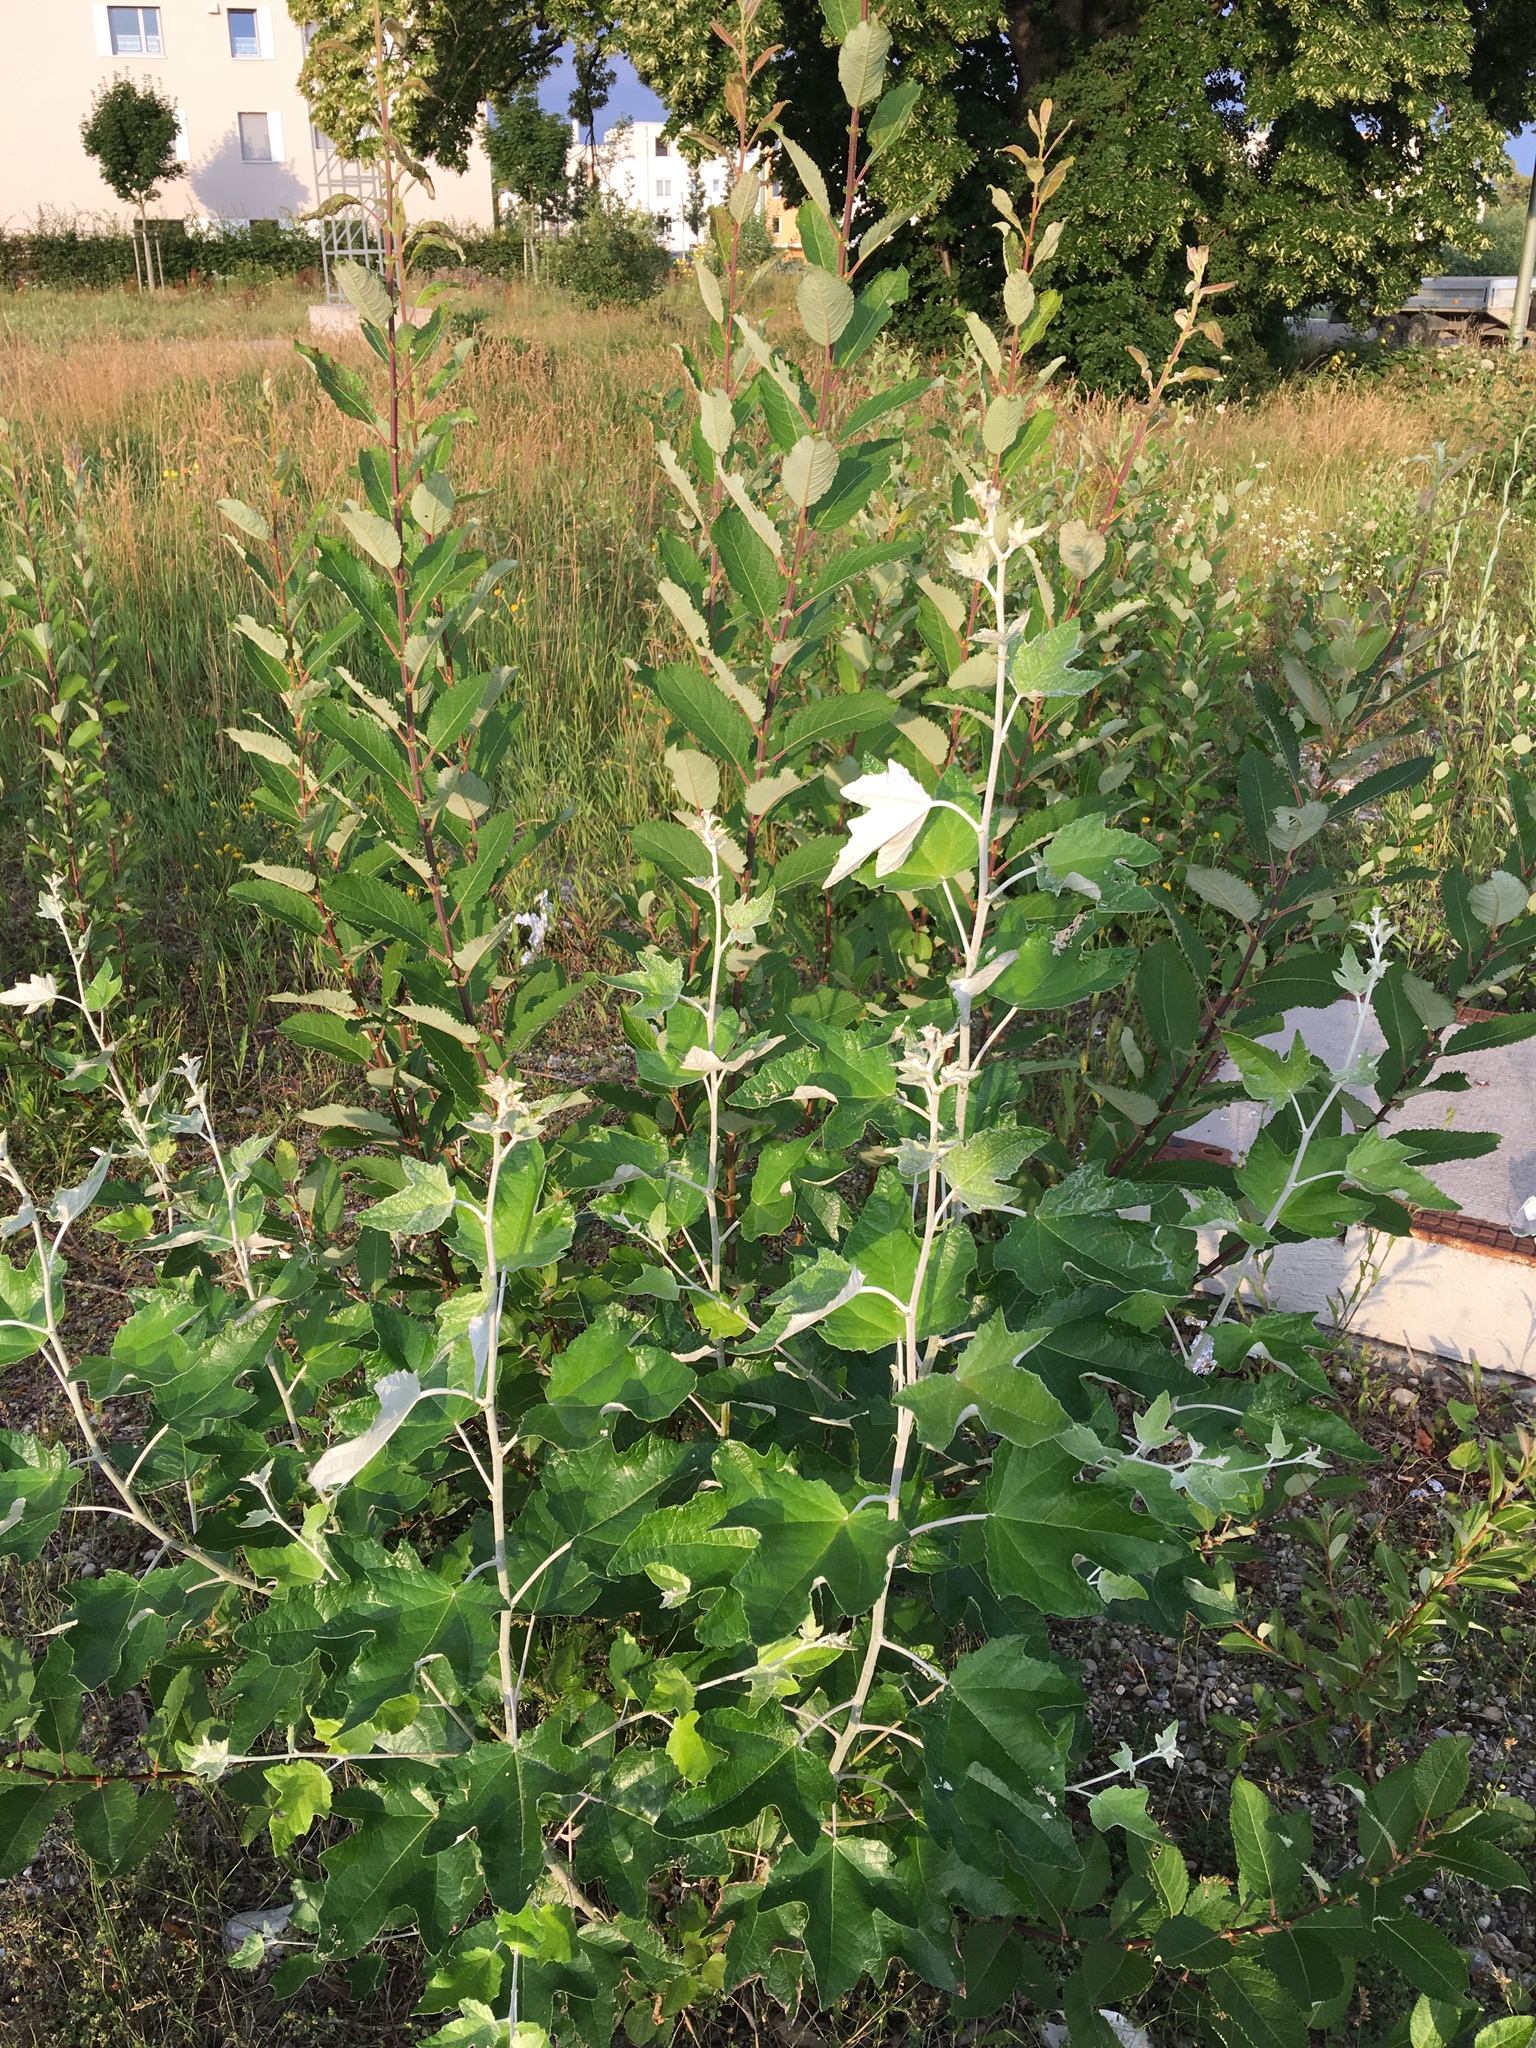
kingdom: Plantae
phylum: Tracheophyta
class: Magnoliopsida
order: Malpighiales
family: Salicaceae
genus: Populus
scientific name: Populus alba
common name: White poplar
